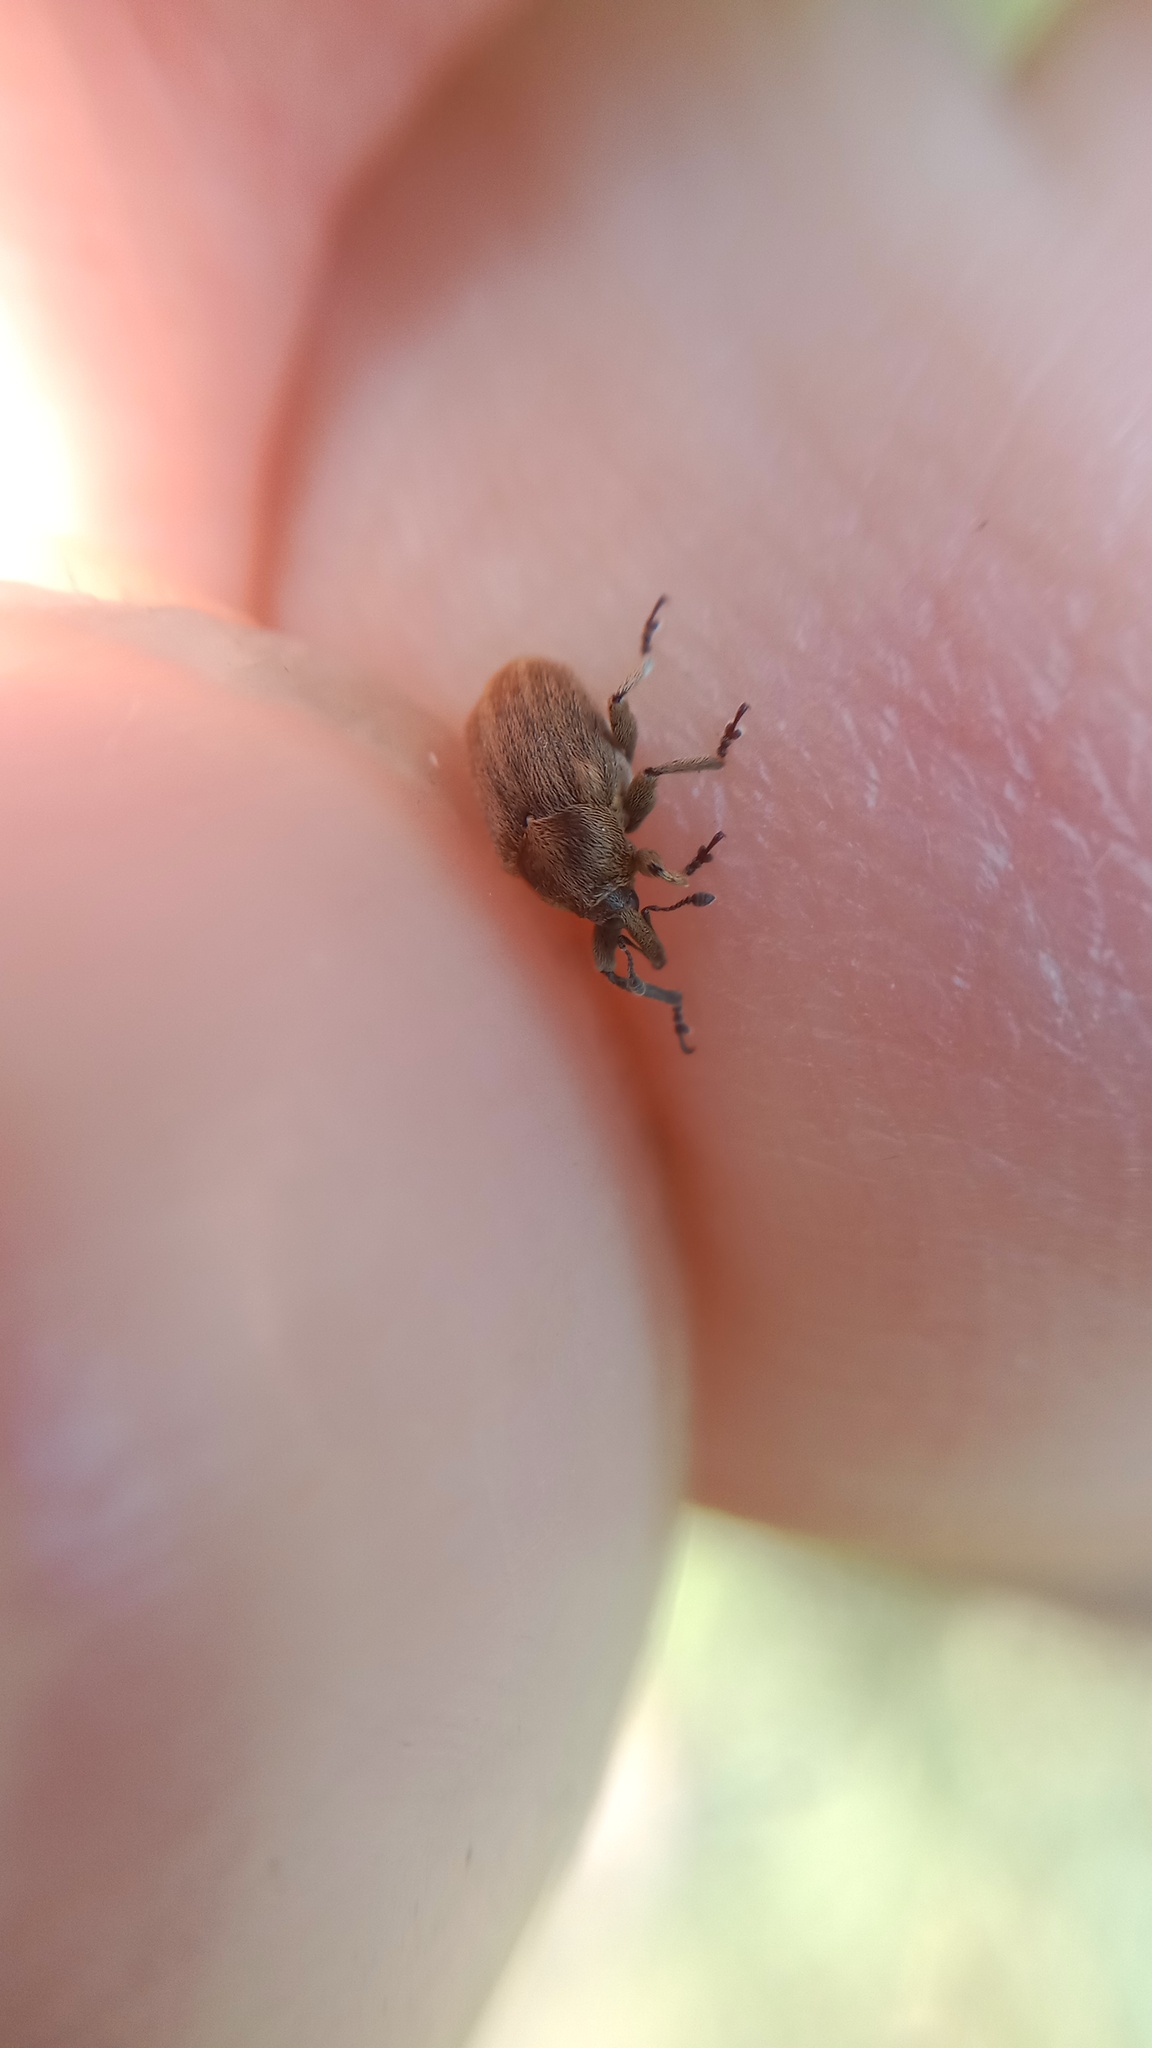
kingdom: Animalia
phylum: Arthropoda
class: Insecta
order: Coleoptera
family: Curculionidae
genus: Sibinia
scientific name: Sibinia pellucens
